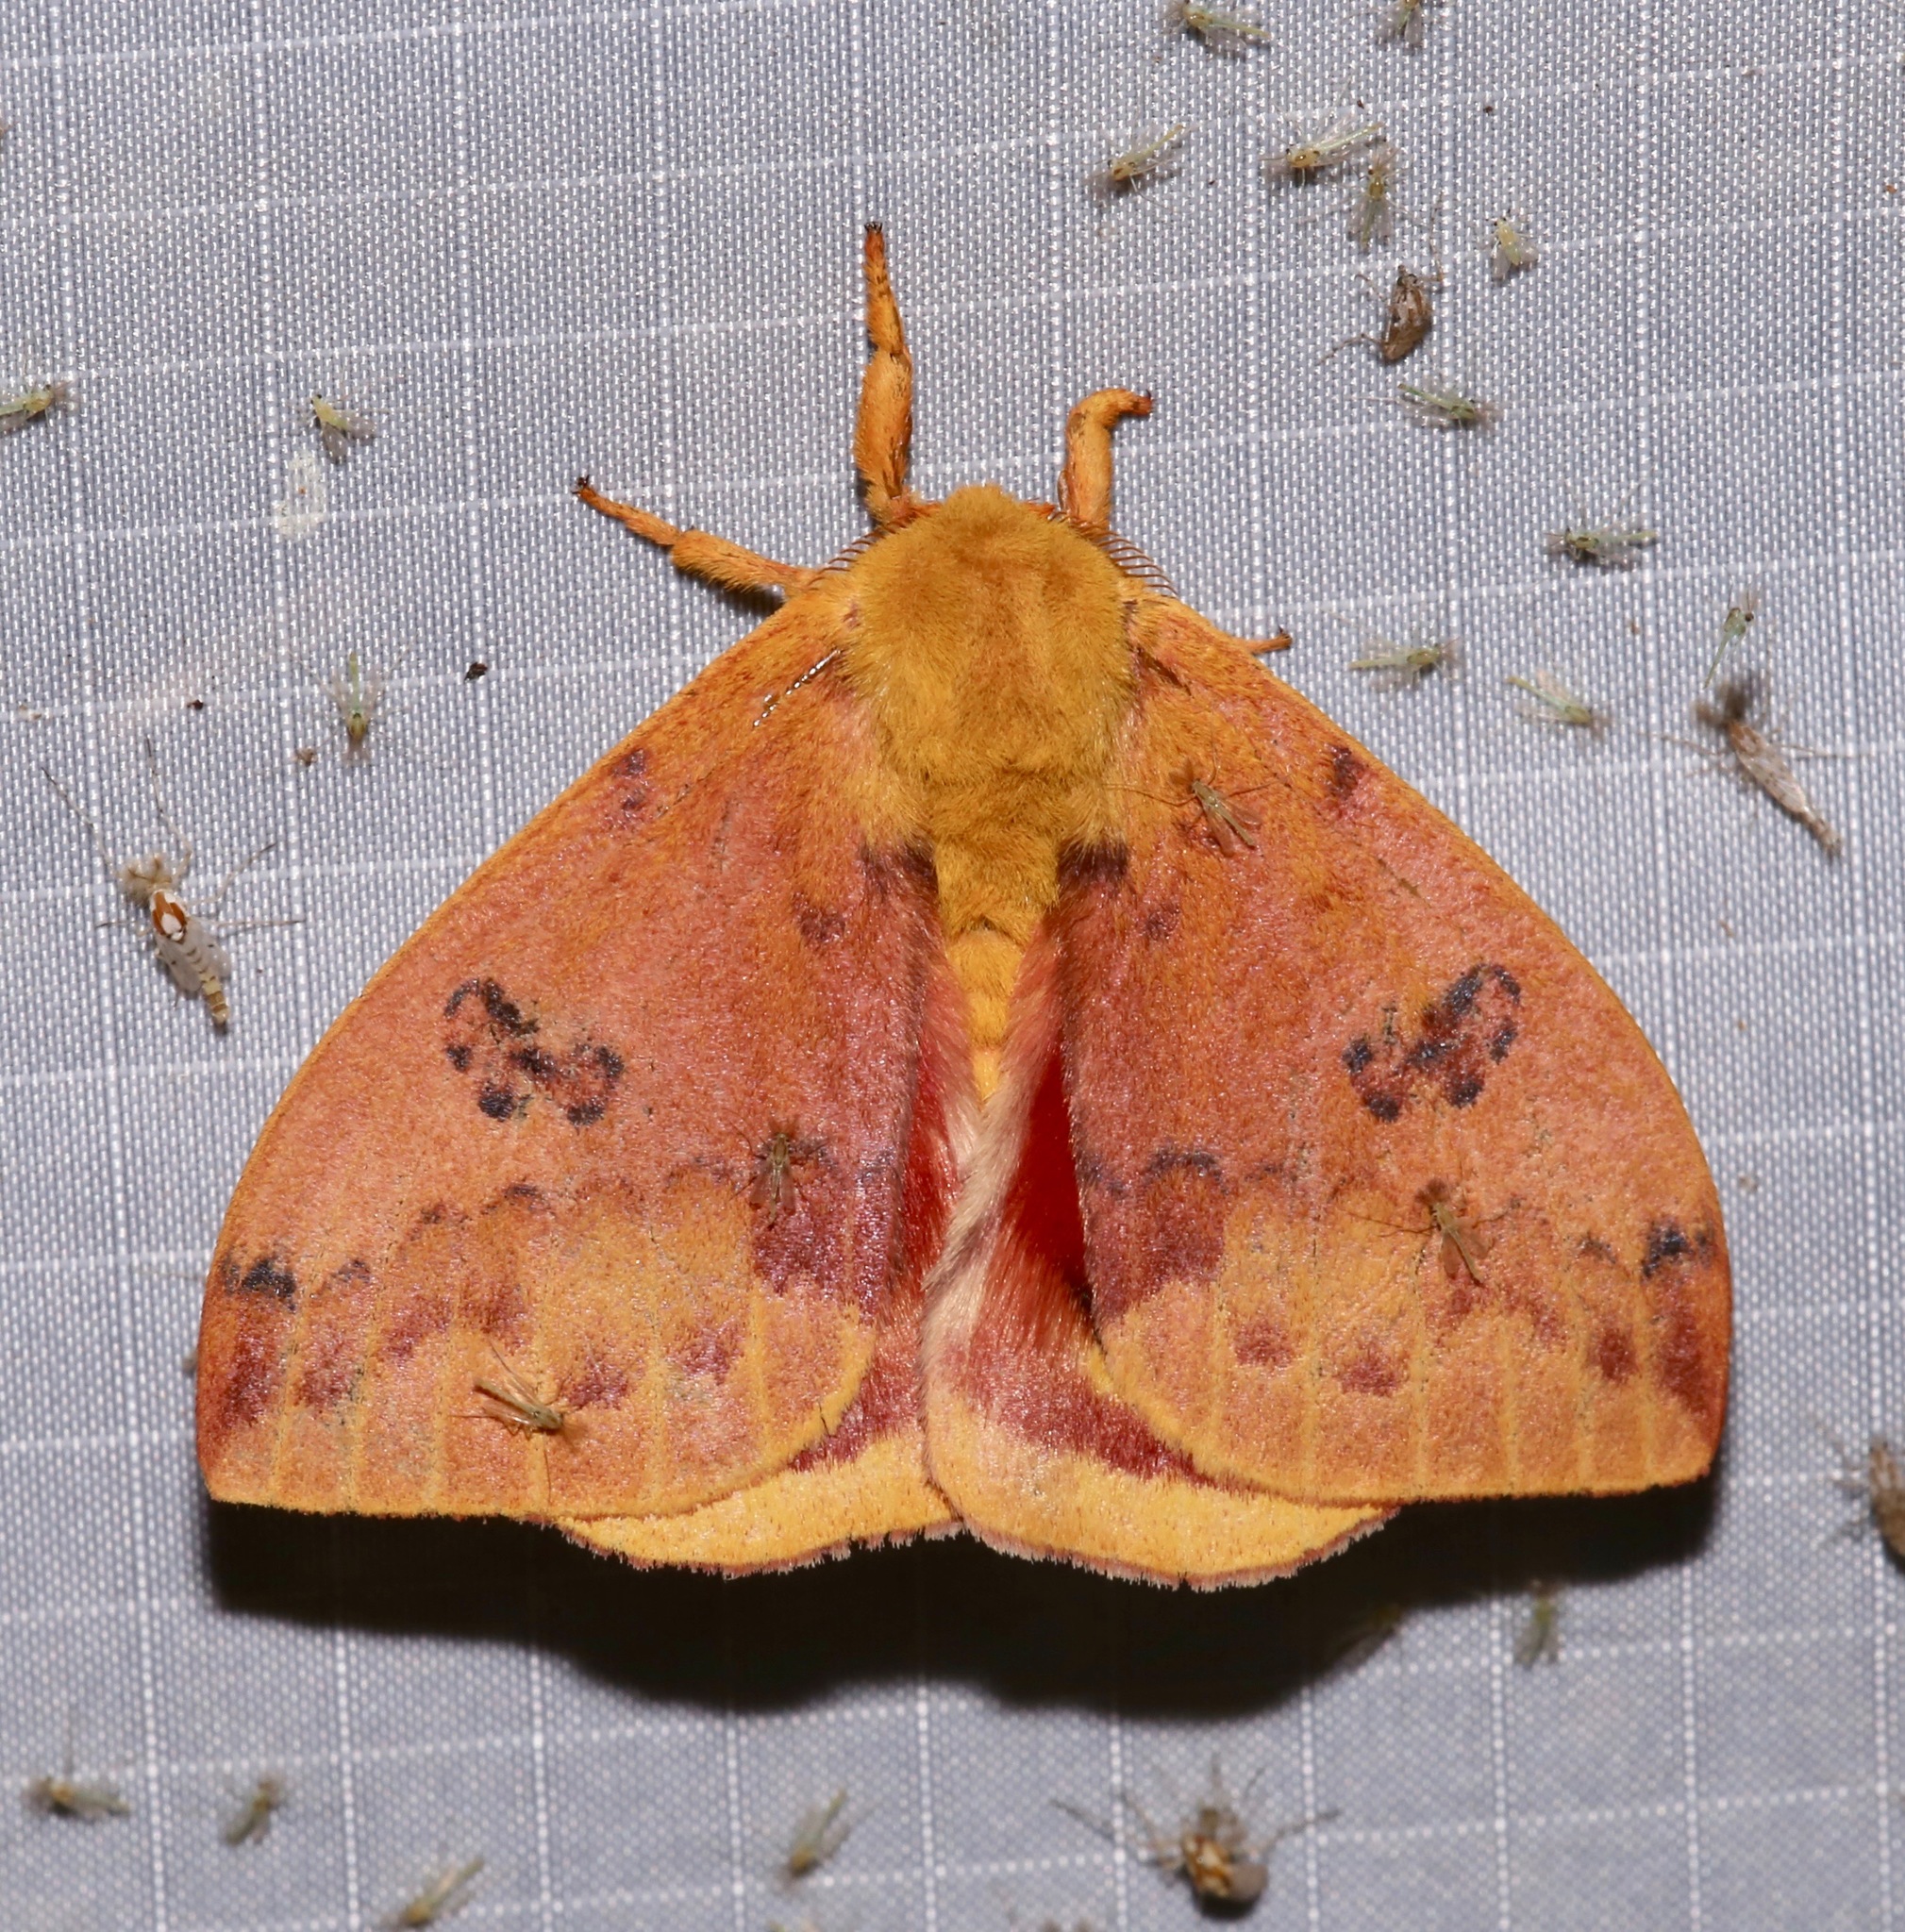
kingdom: Animalia
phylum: Arthropoda
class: Insecta
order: Lepidoptera
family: Saturniidae
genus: Automeris
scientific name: Automeris io
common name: Io moth
